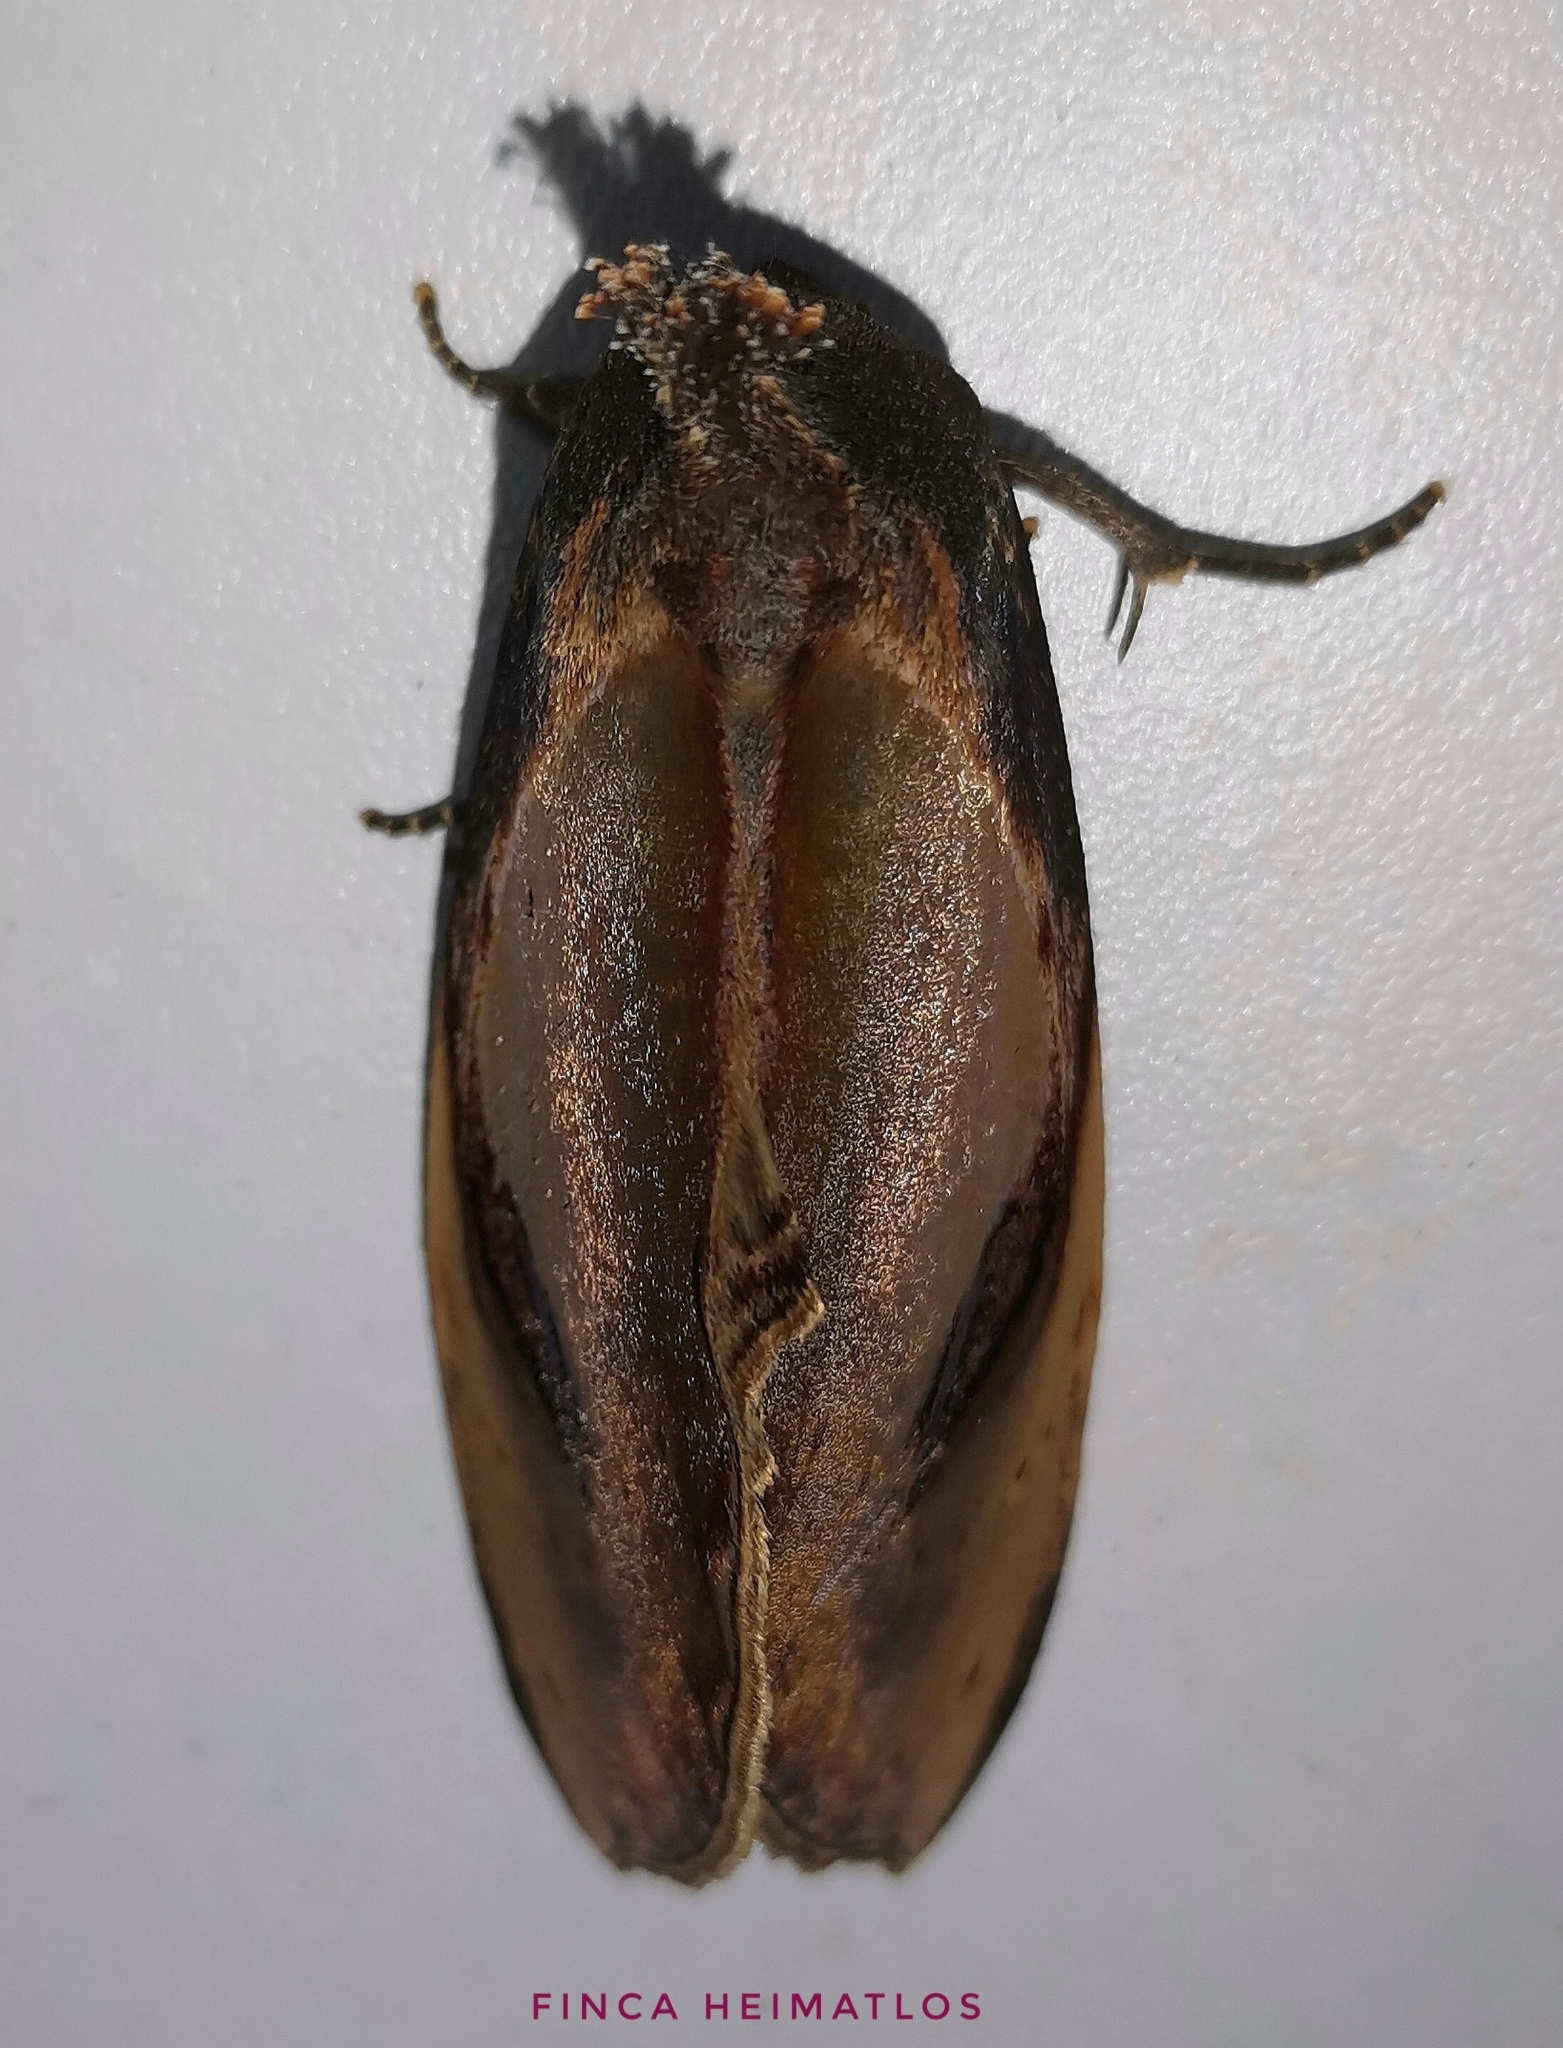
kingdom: Animalia
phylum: Arthropoda
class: Insecta
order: Lepidoptera
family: Notodontidae
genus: Crinodes
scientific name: Crinodes bellatrix
